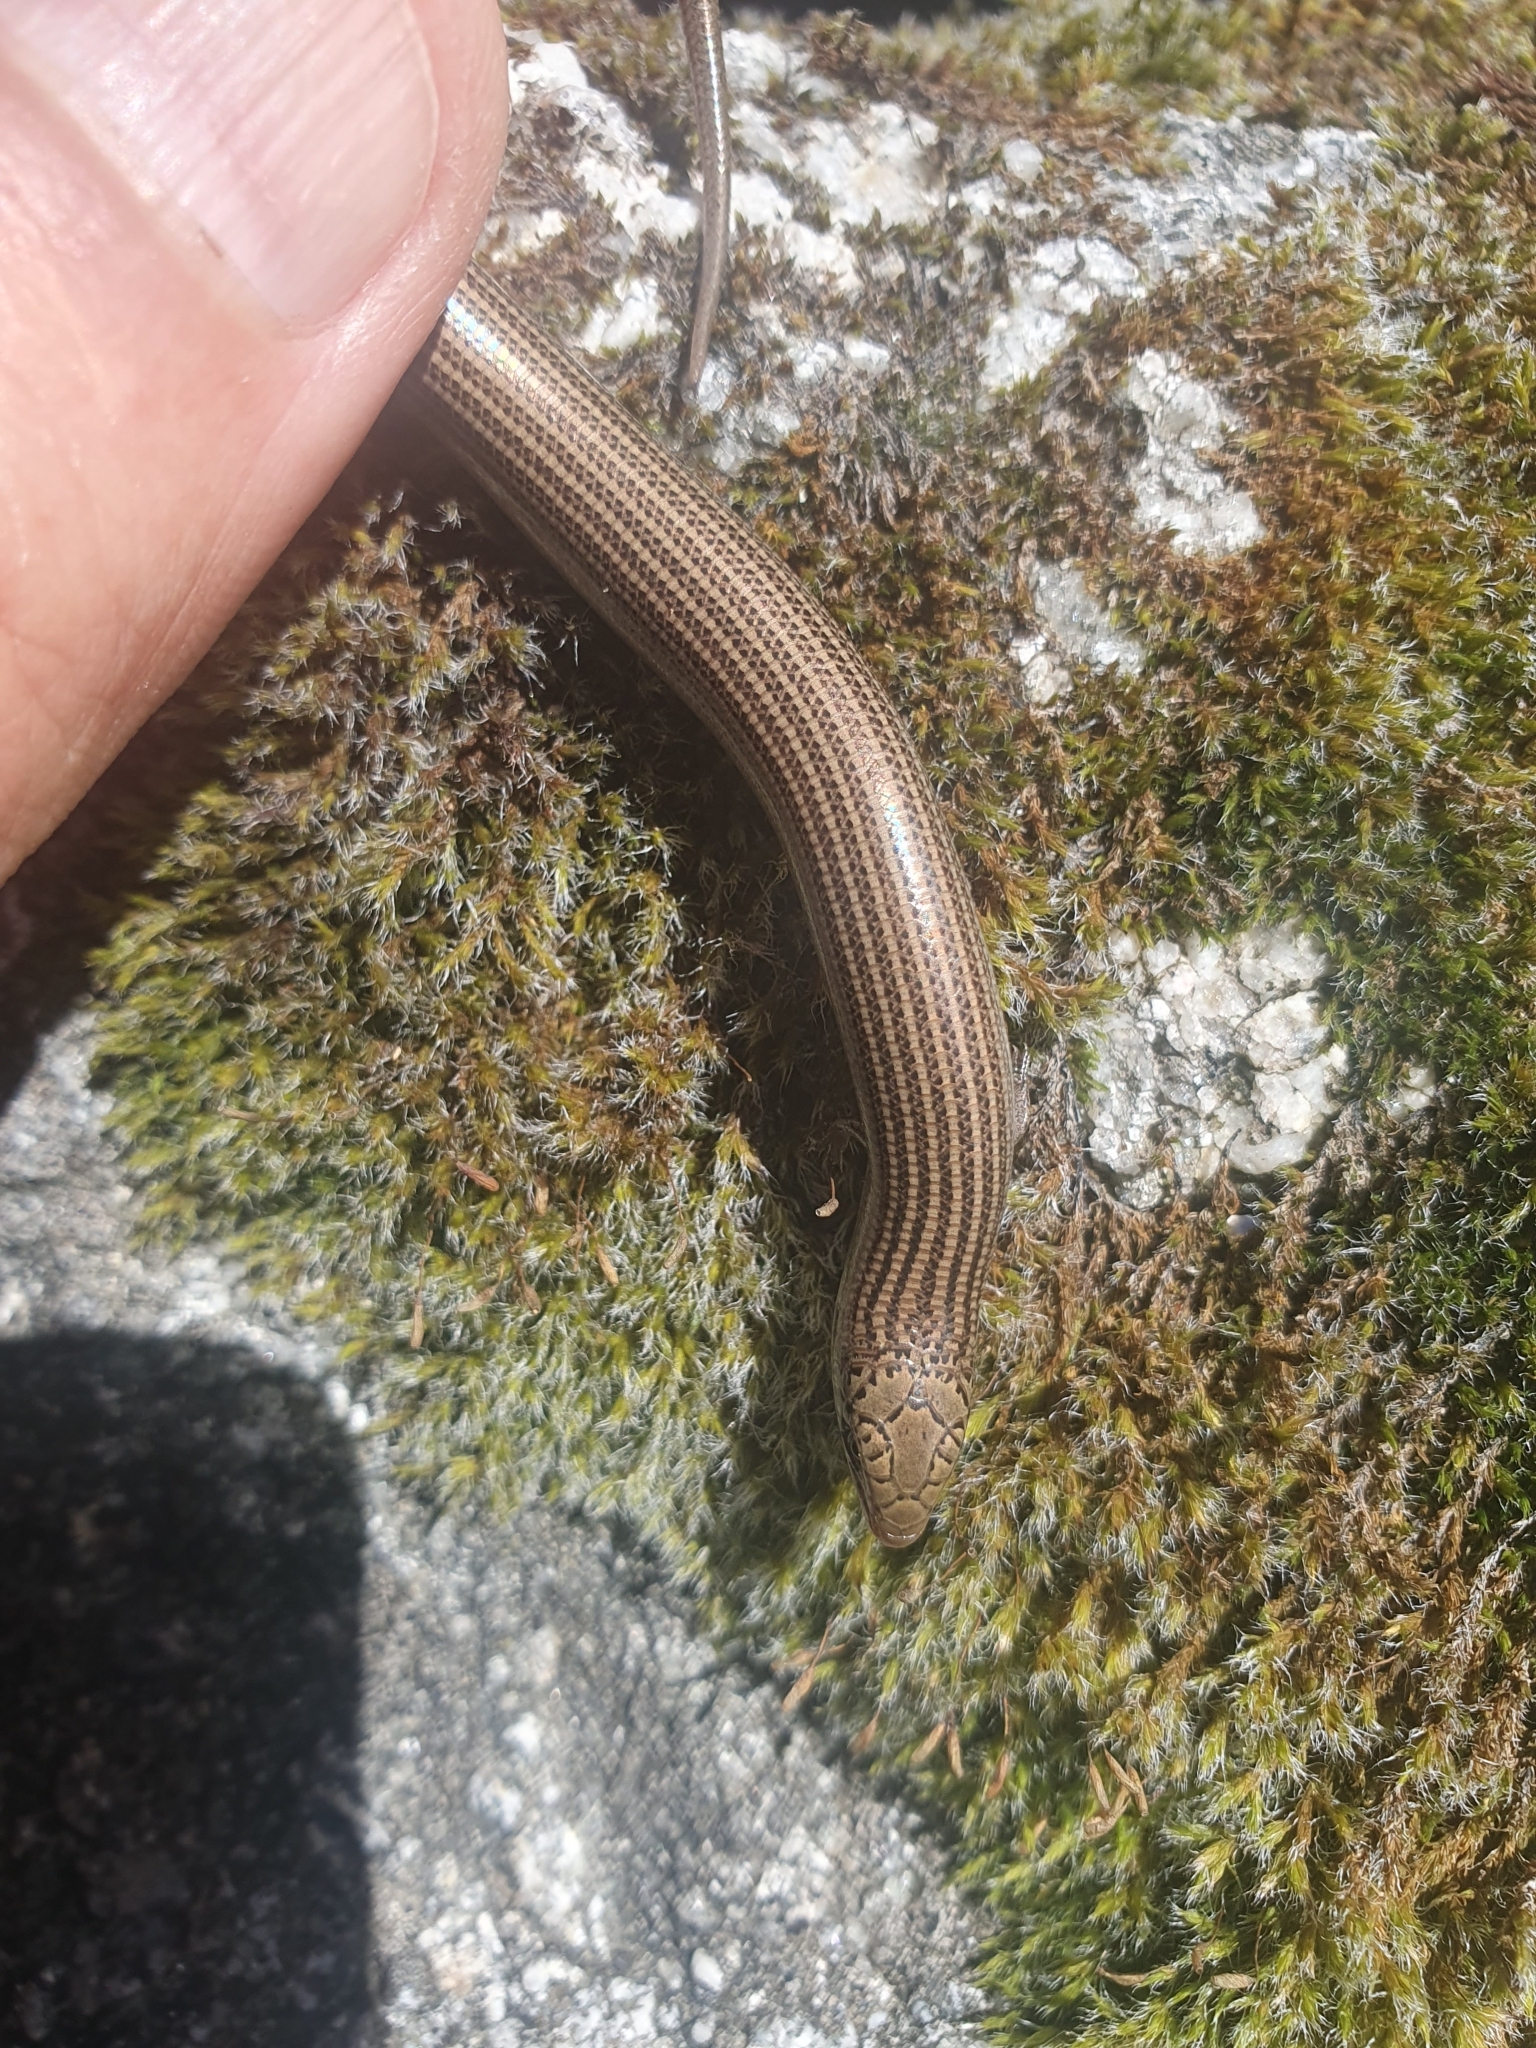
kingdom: Animalia
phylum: Chordata
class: Squamata
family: Scincidae
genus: Chalcides
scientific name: Chalcides striatus
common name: Western (or iberian) three-toed skink
